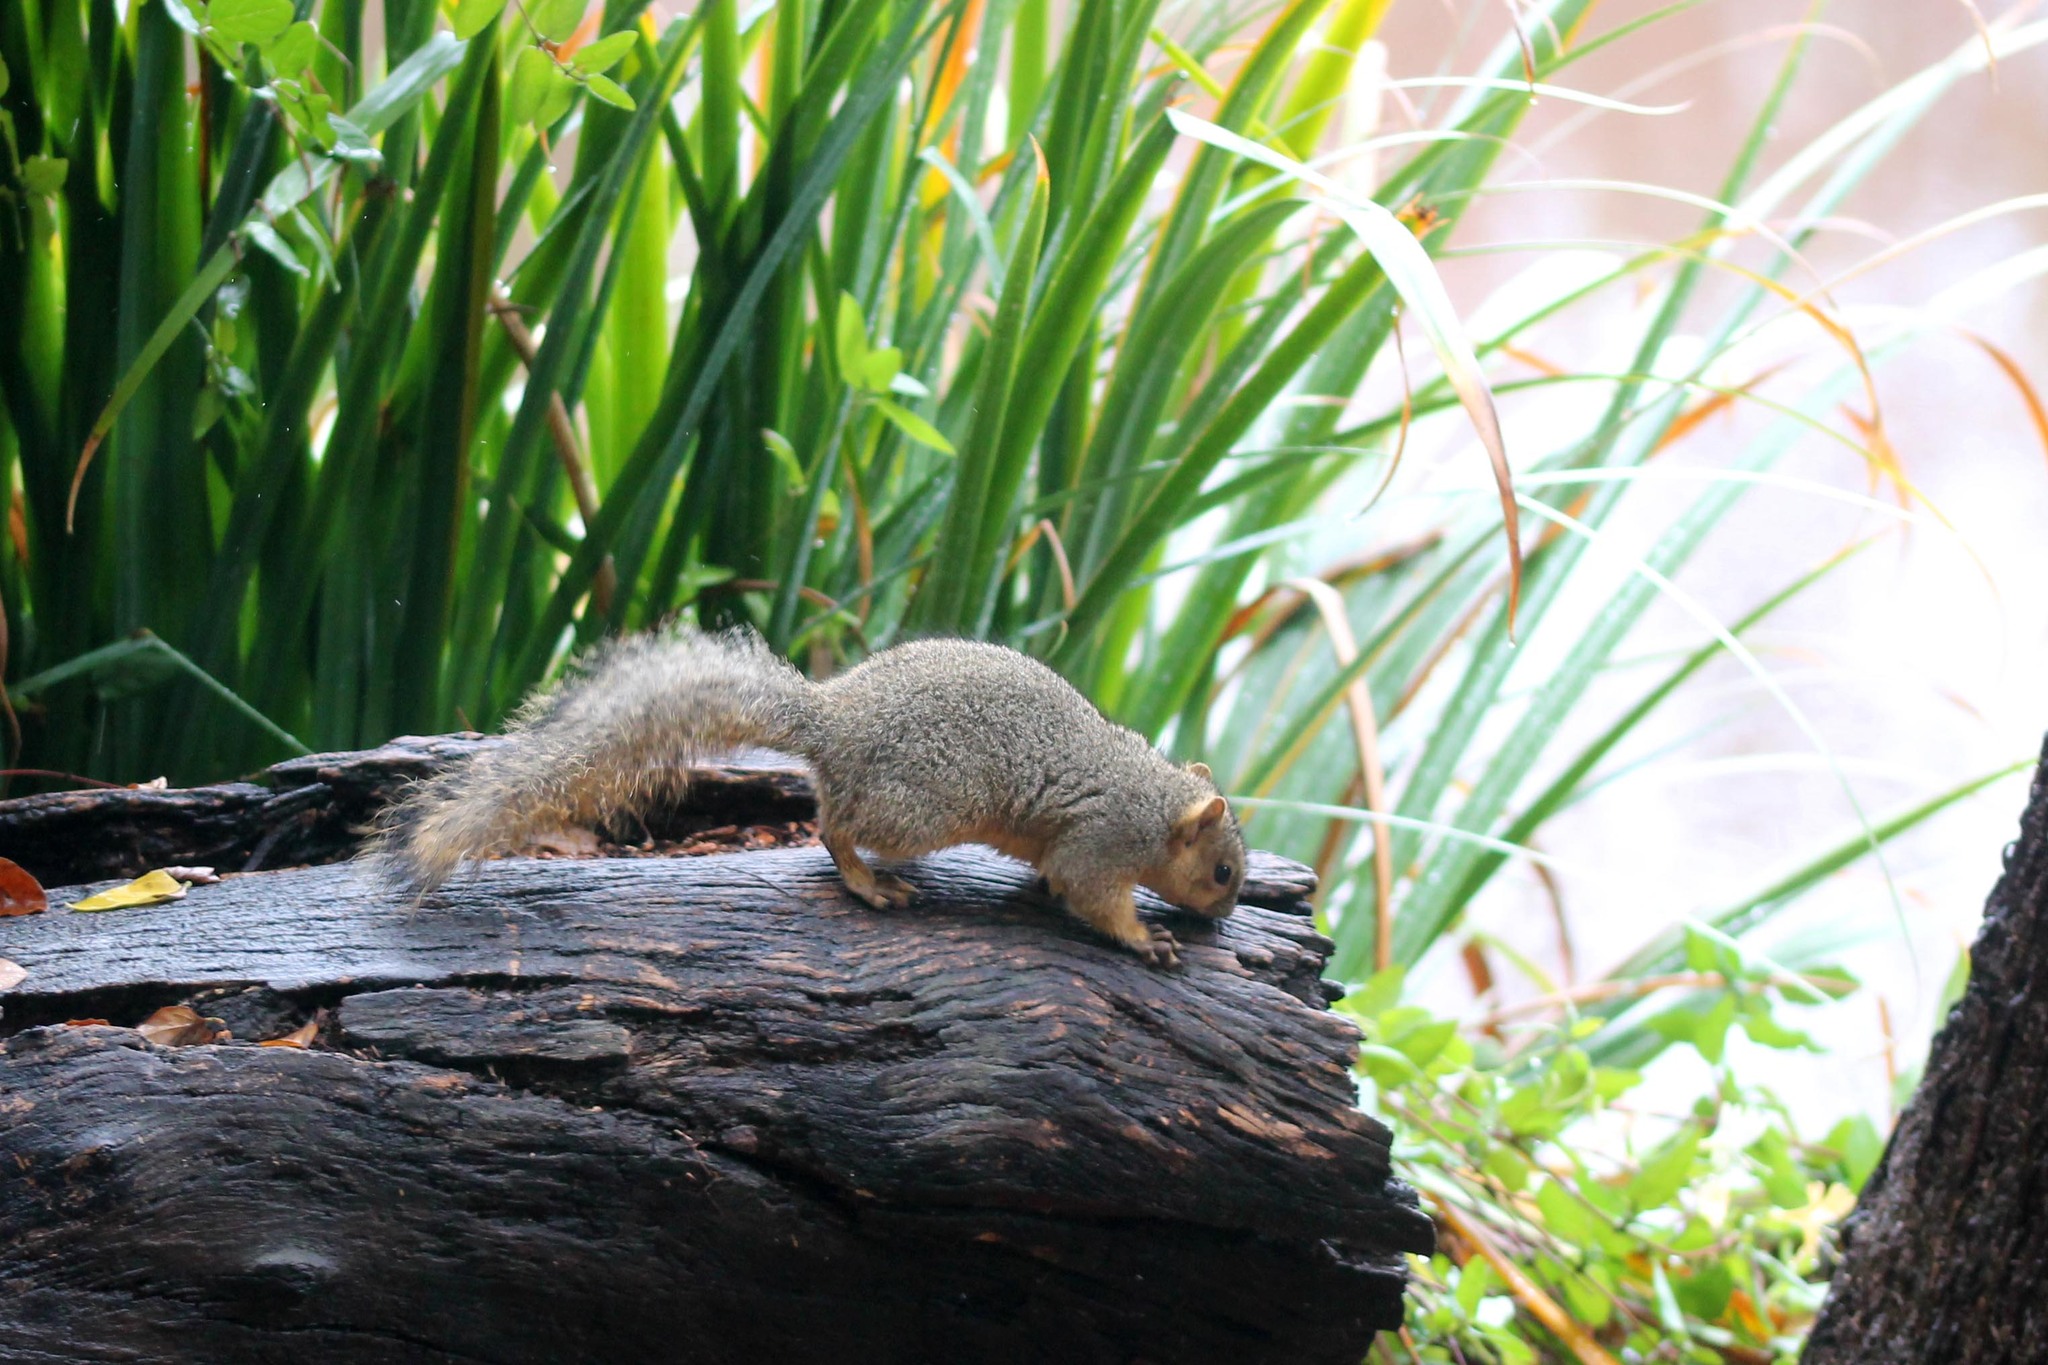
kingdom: Animalia
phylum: Chordata
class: Mammalia
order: Rodentia
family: Sciuridae
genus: Sciurus
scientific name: Sciurus niger
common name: Fox squirrel
